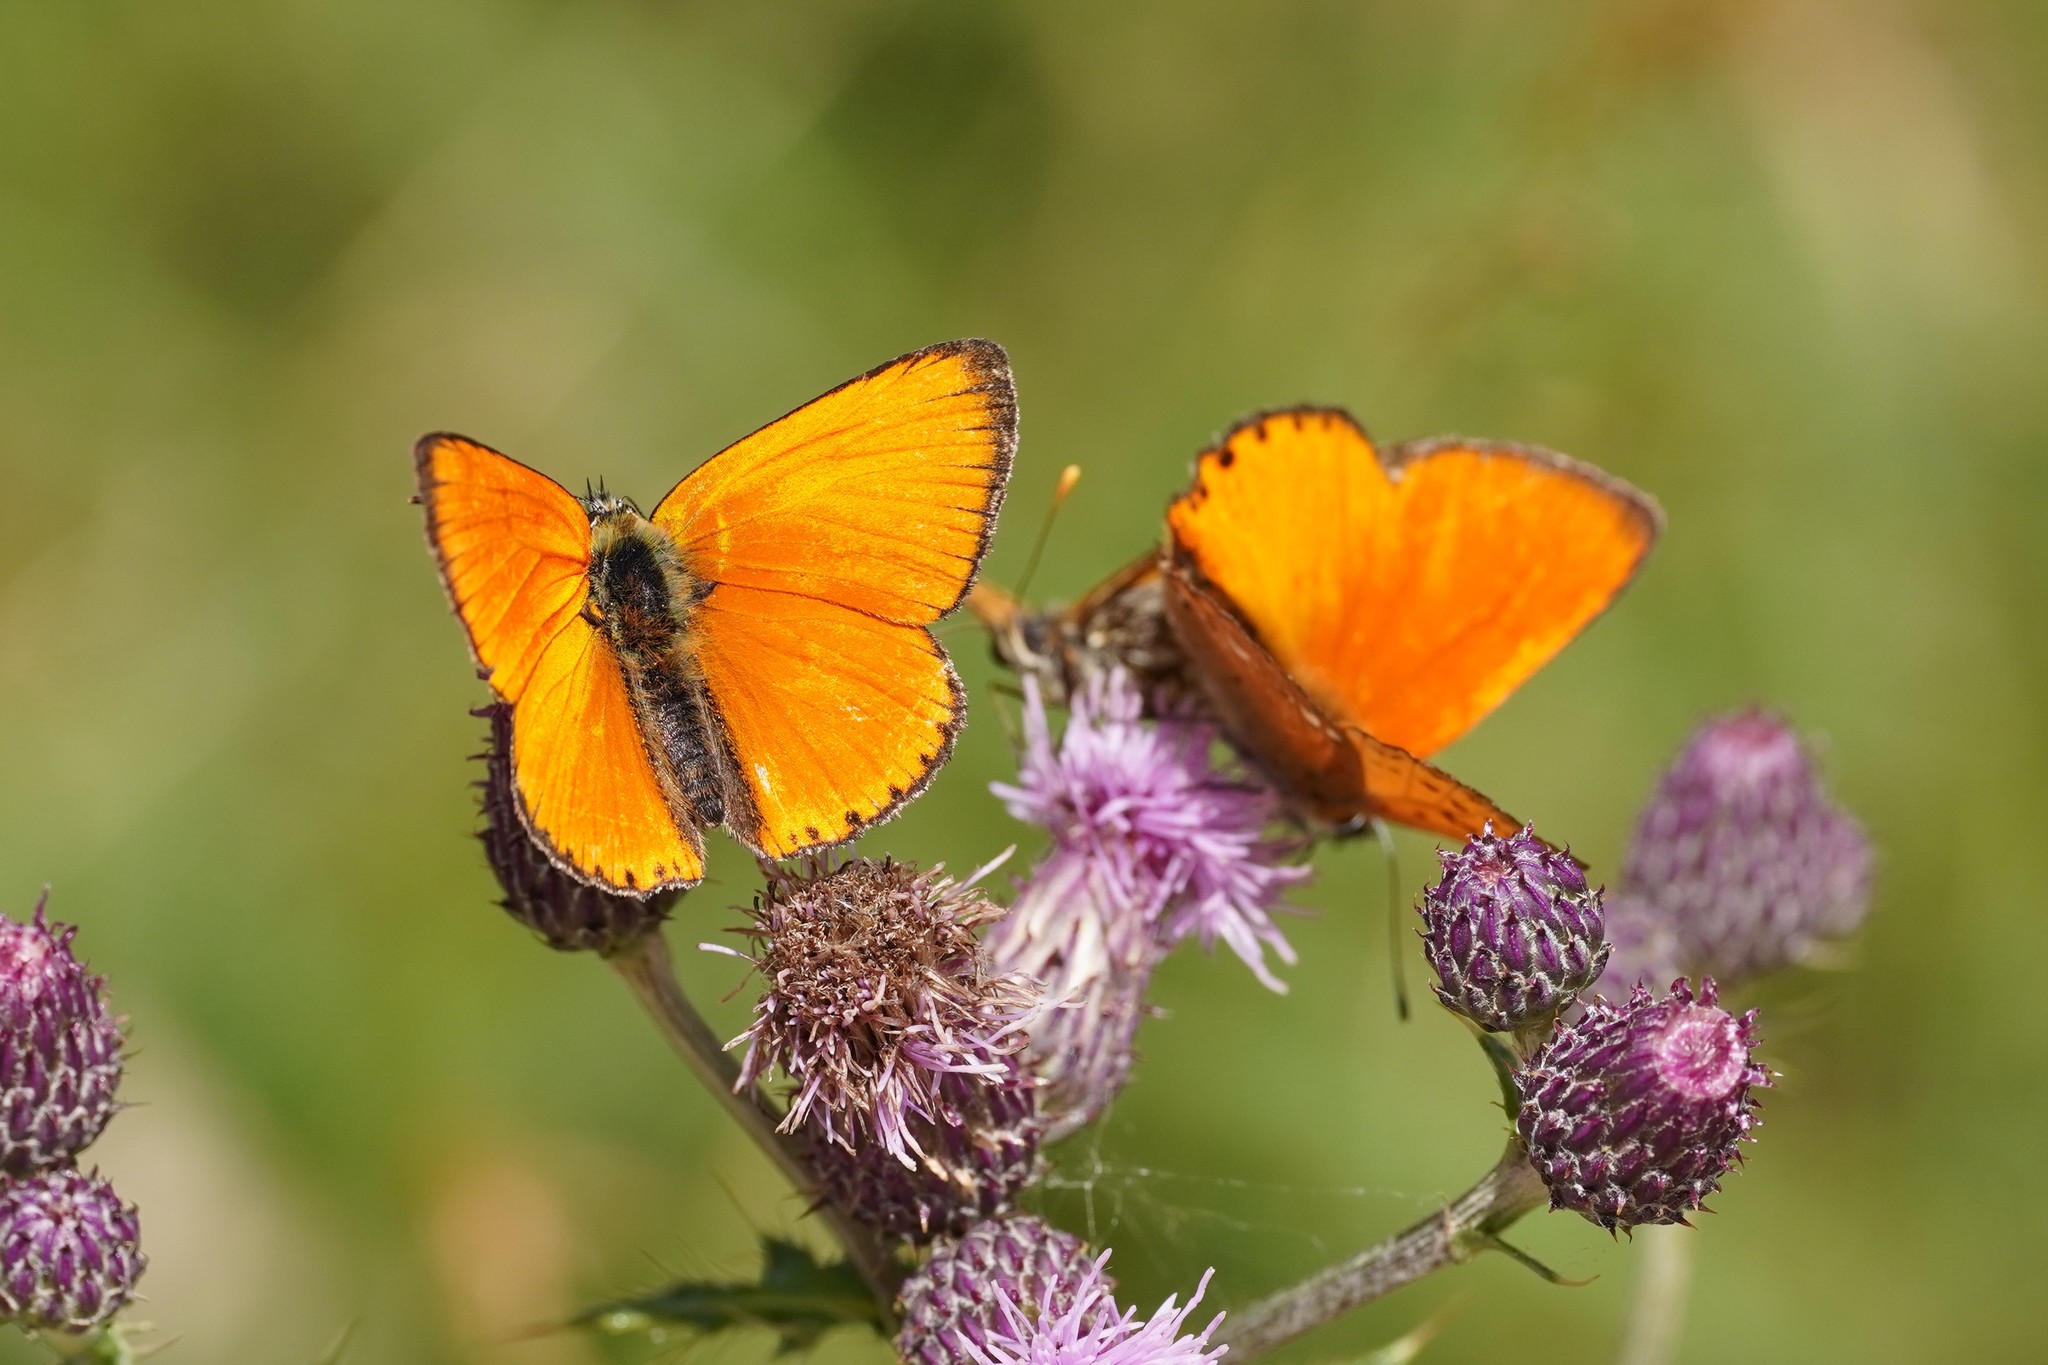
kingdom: Animalia
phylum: Arthropoda
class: Insecta
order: Lepidoptera
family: Lycaenidae
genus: Lycaena
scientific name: Lycaena virgaureae
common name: Scarce copper
